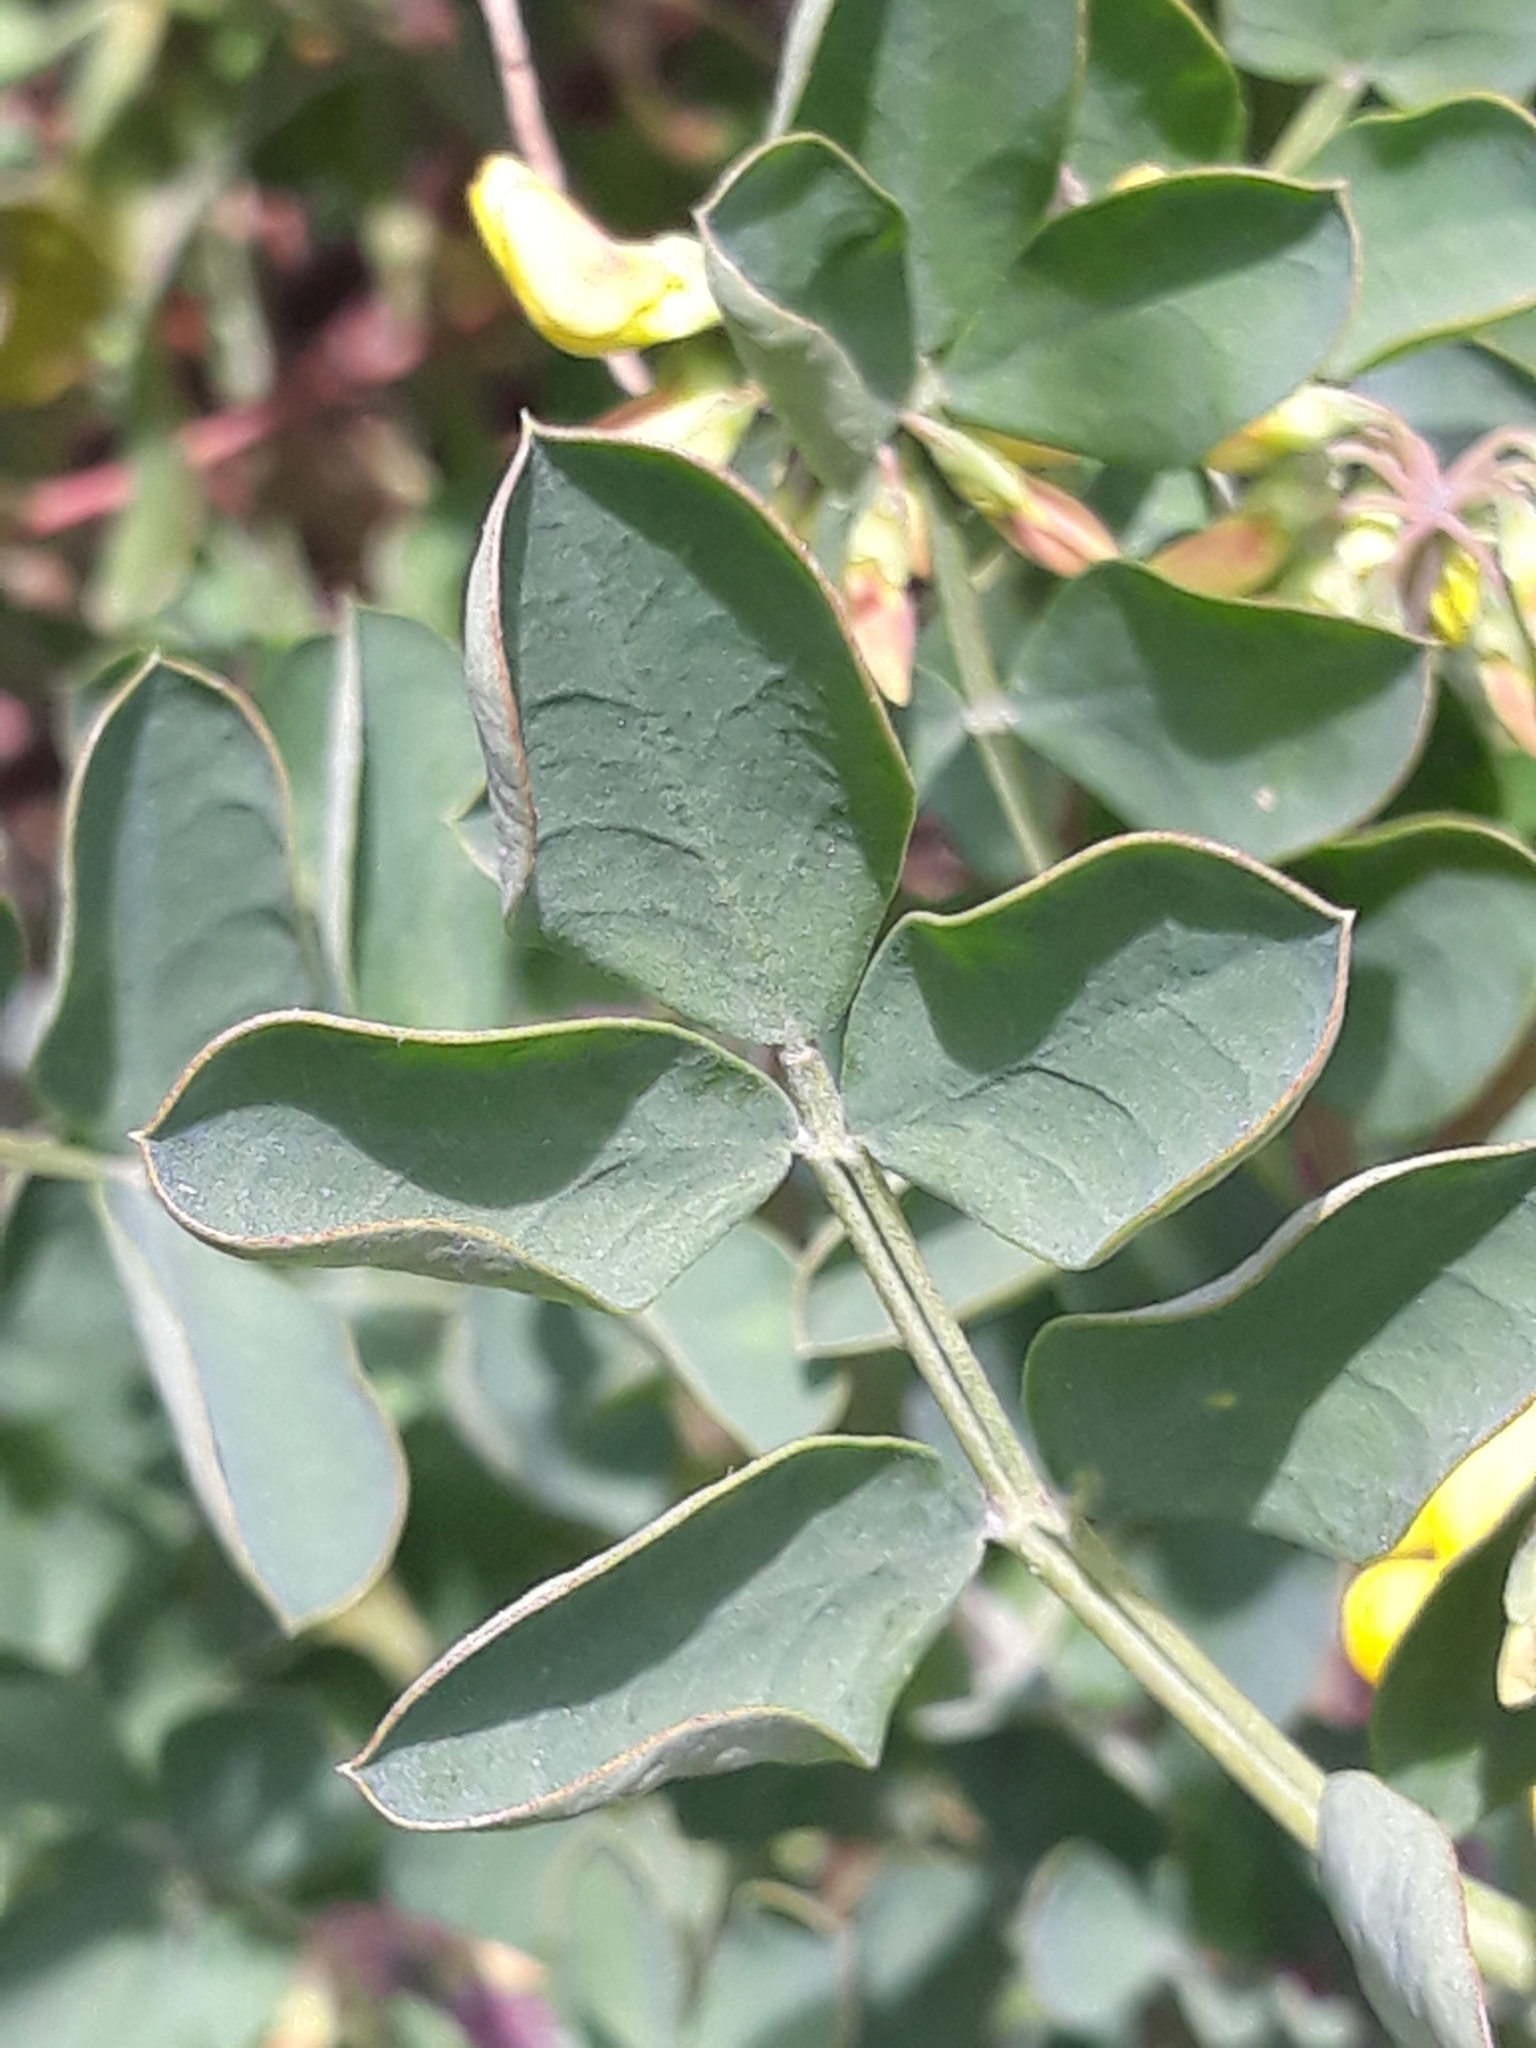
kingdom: Plantae
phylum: Tracheophyta
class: Magnoliopsida
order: Fabales
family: Fabaceae
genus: Coronilla
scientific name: Coronilla valentina
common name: Shrubby scorpion-vetch
